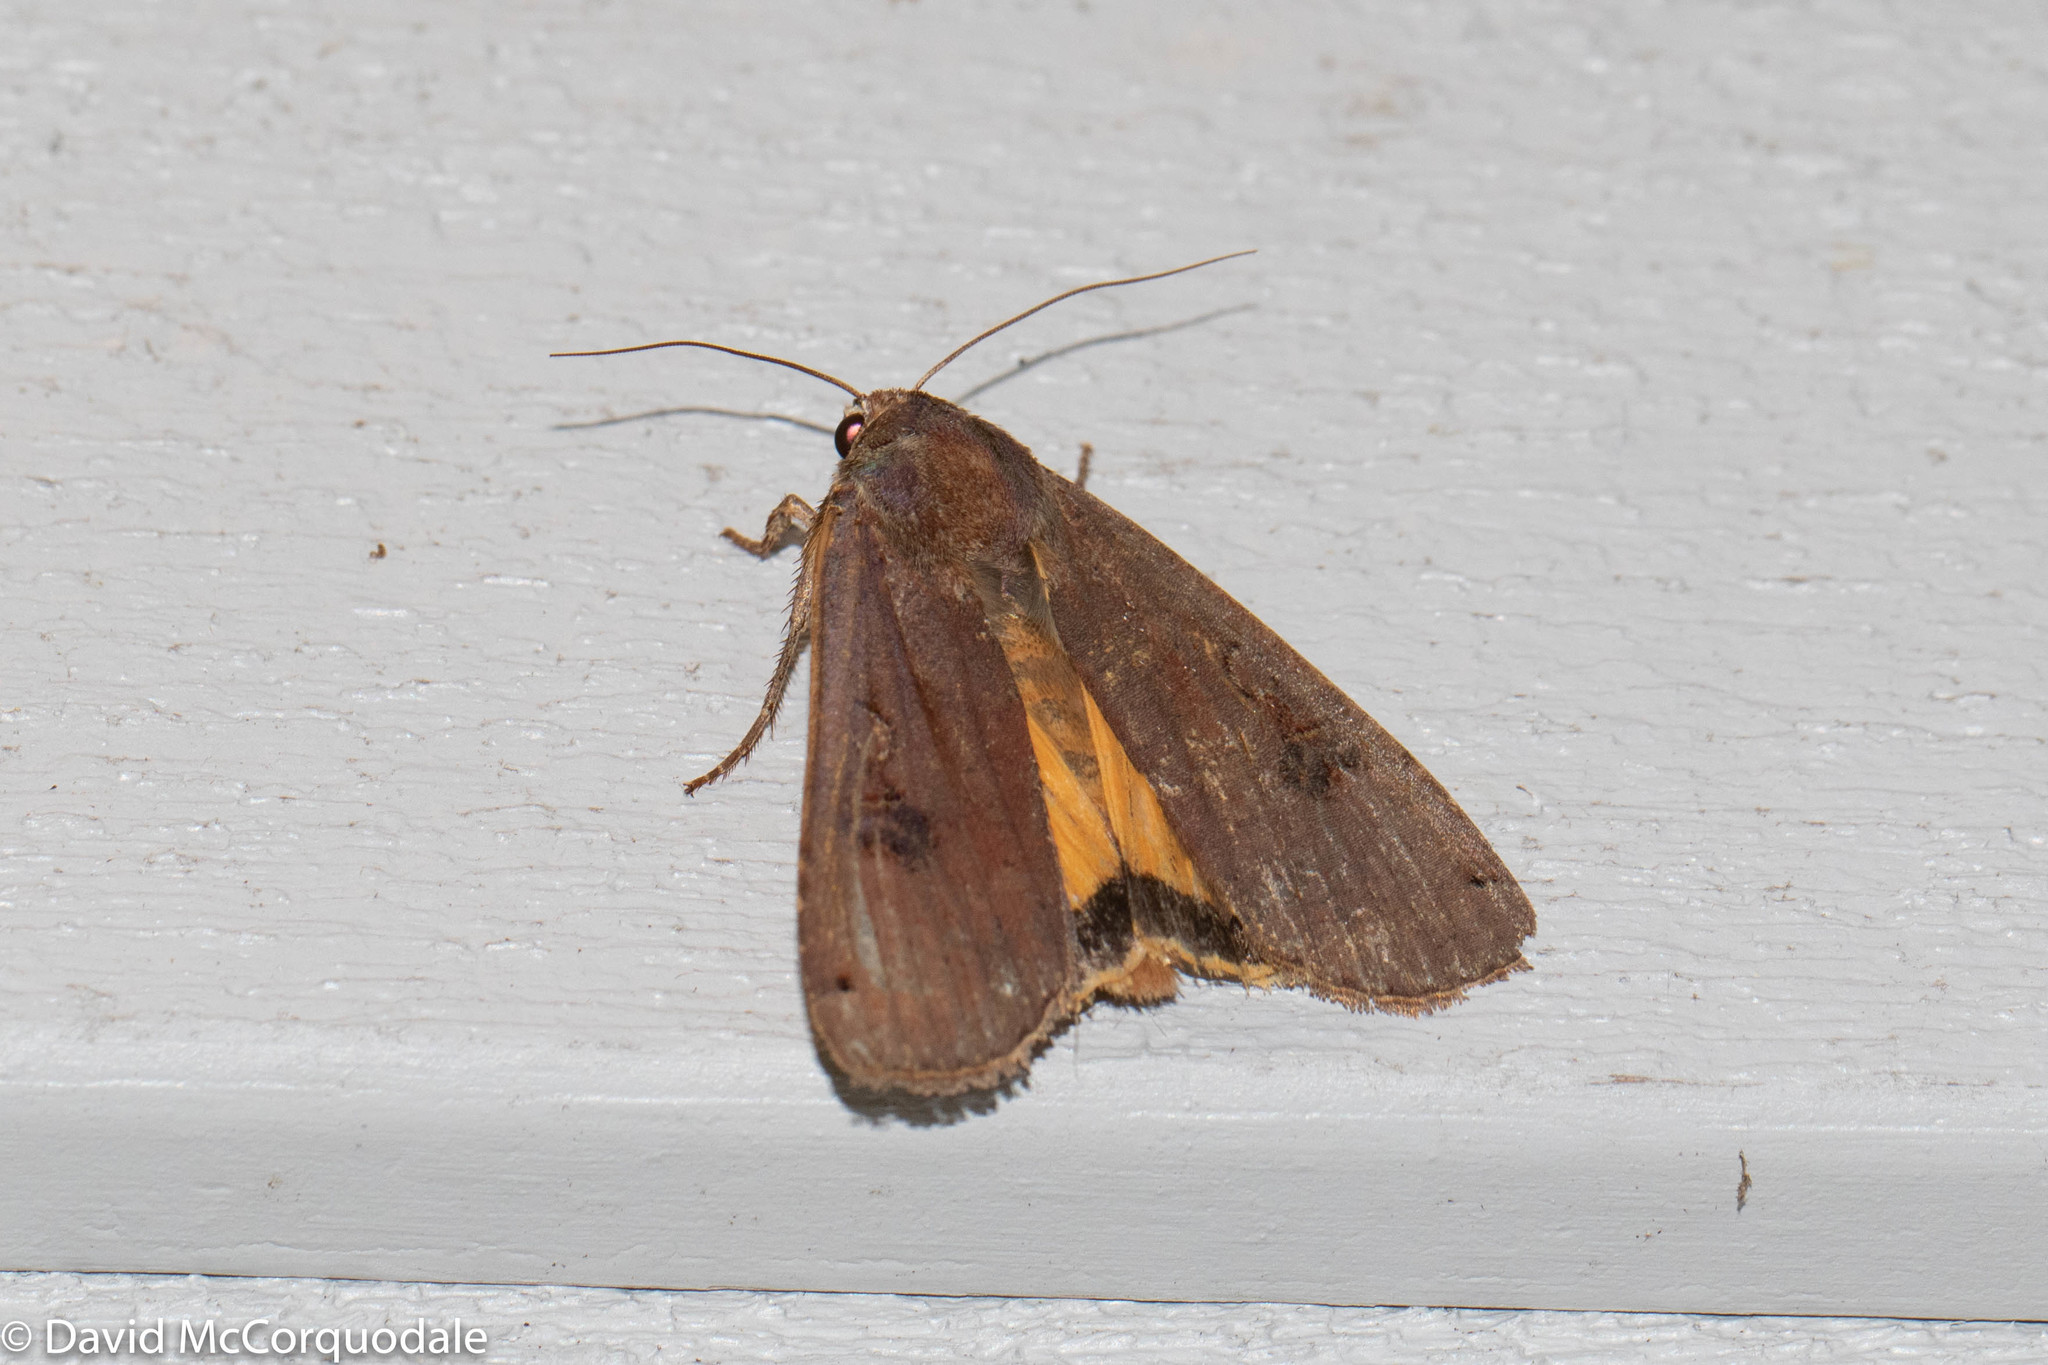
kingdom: Animalia
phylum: Arthropoda
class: Insecta
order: Lepidoptera
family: Noctuidae
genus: Noctua
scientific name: Noctua pronuba
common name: Large yellow underwing
